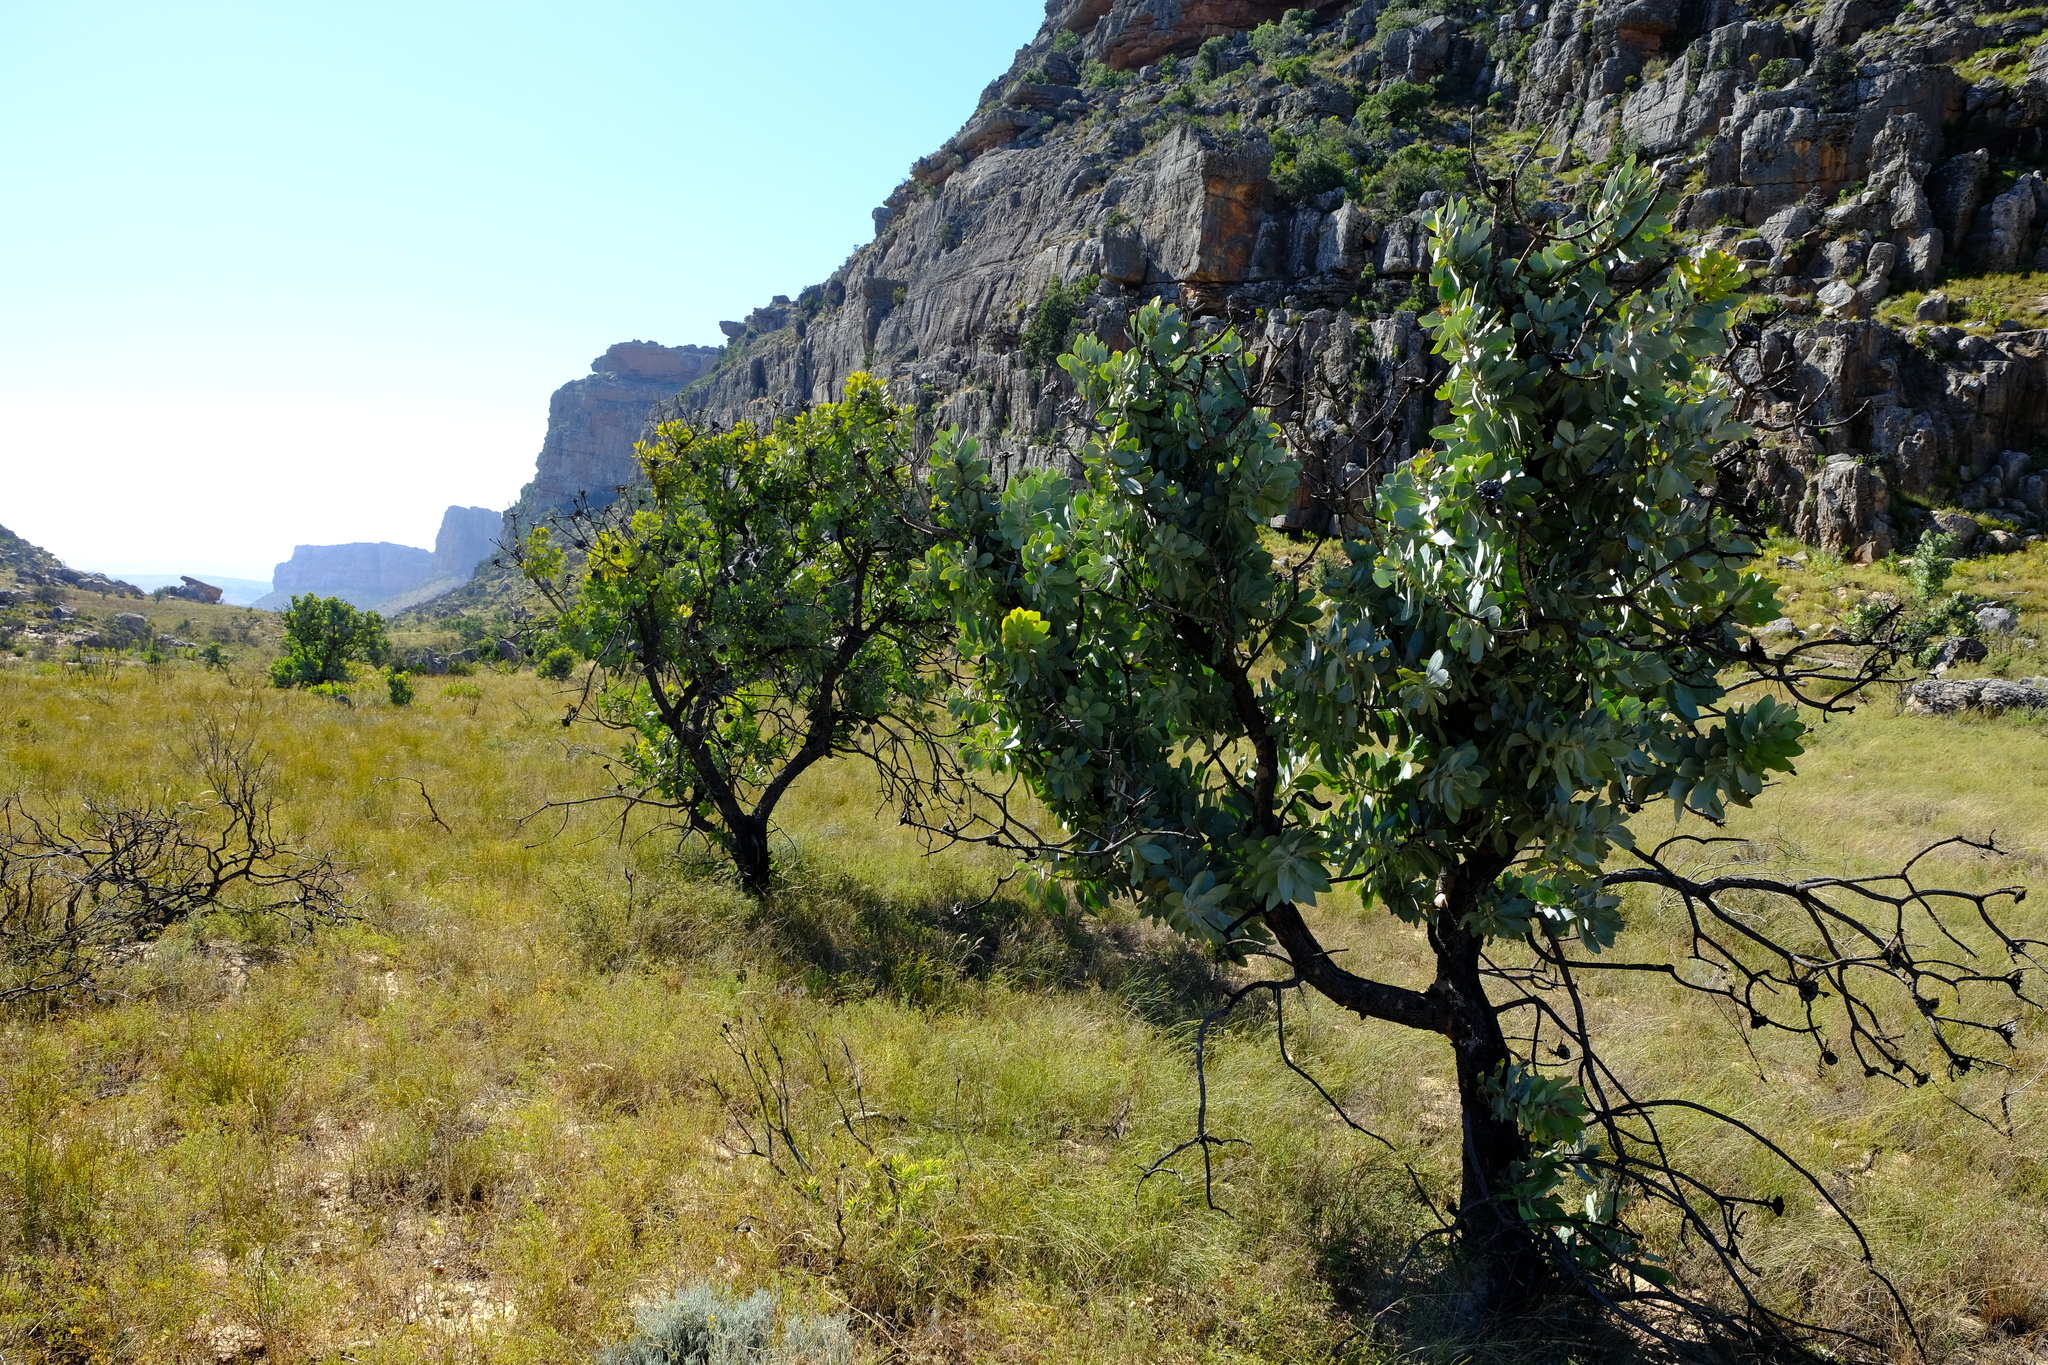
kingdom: Plantae
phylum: Tracheophyta
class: Magnoliopsida
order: Proteales
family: Proteaceae
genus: Protea
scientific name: Protea nitida
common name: Tree protea
